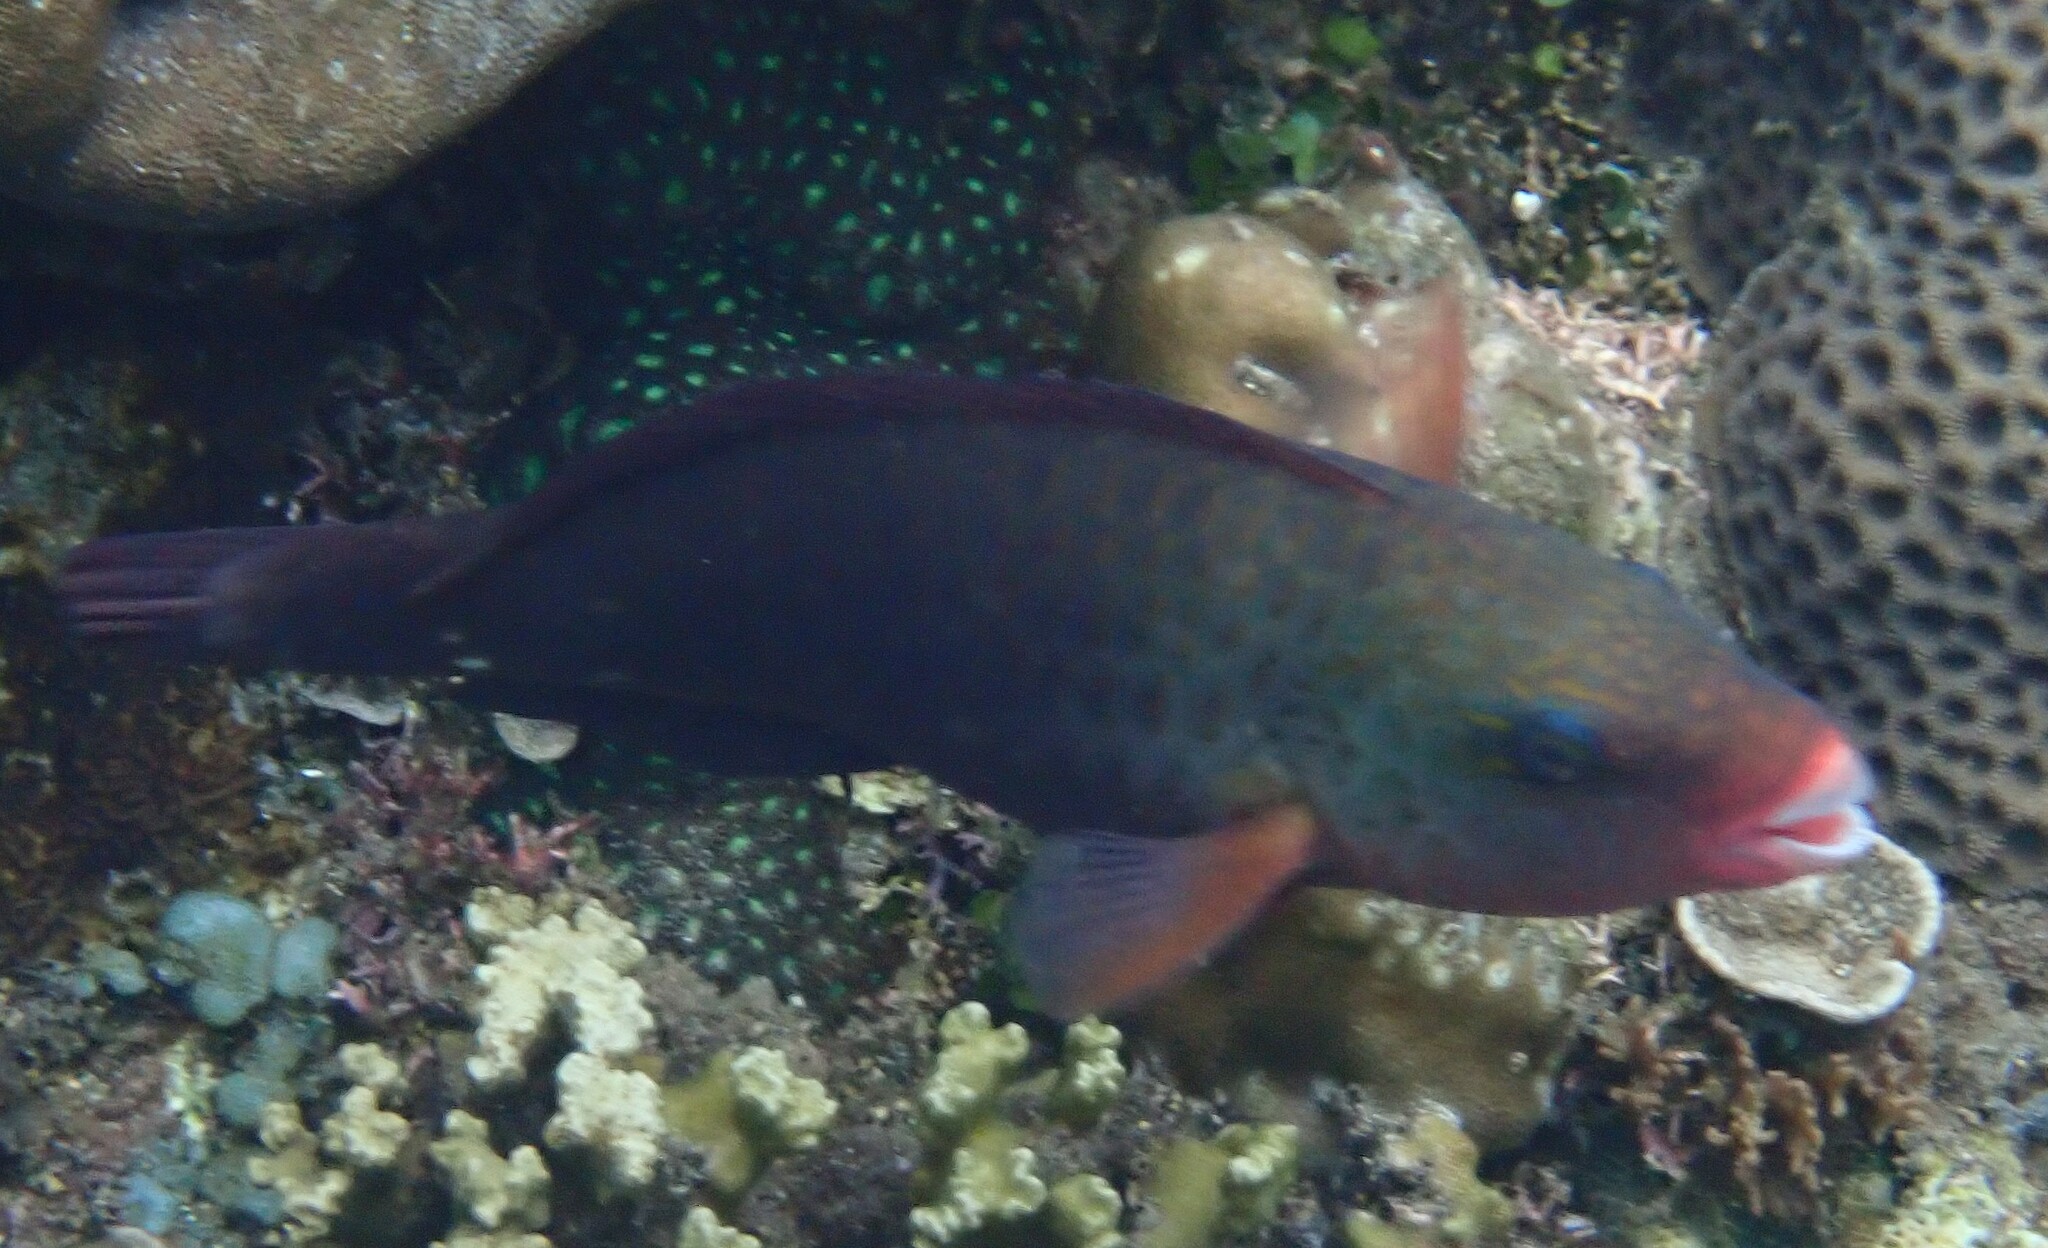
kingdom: Animalia
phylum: Chordata
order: Perciformes
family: Scaridae
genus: Chlorurus
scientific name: Chlorurus spilurus
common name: Bullethead parrotfish
